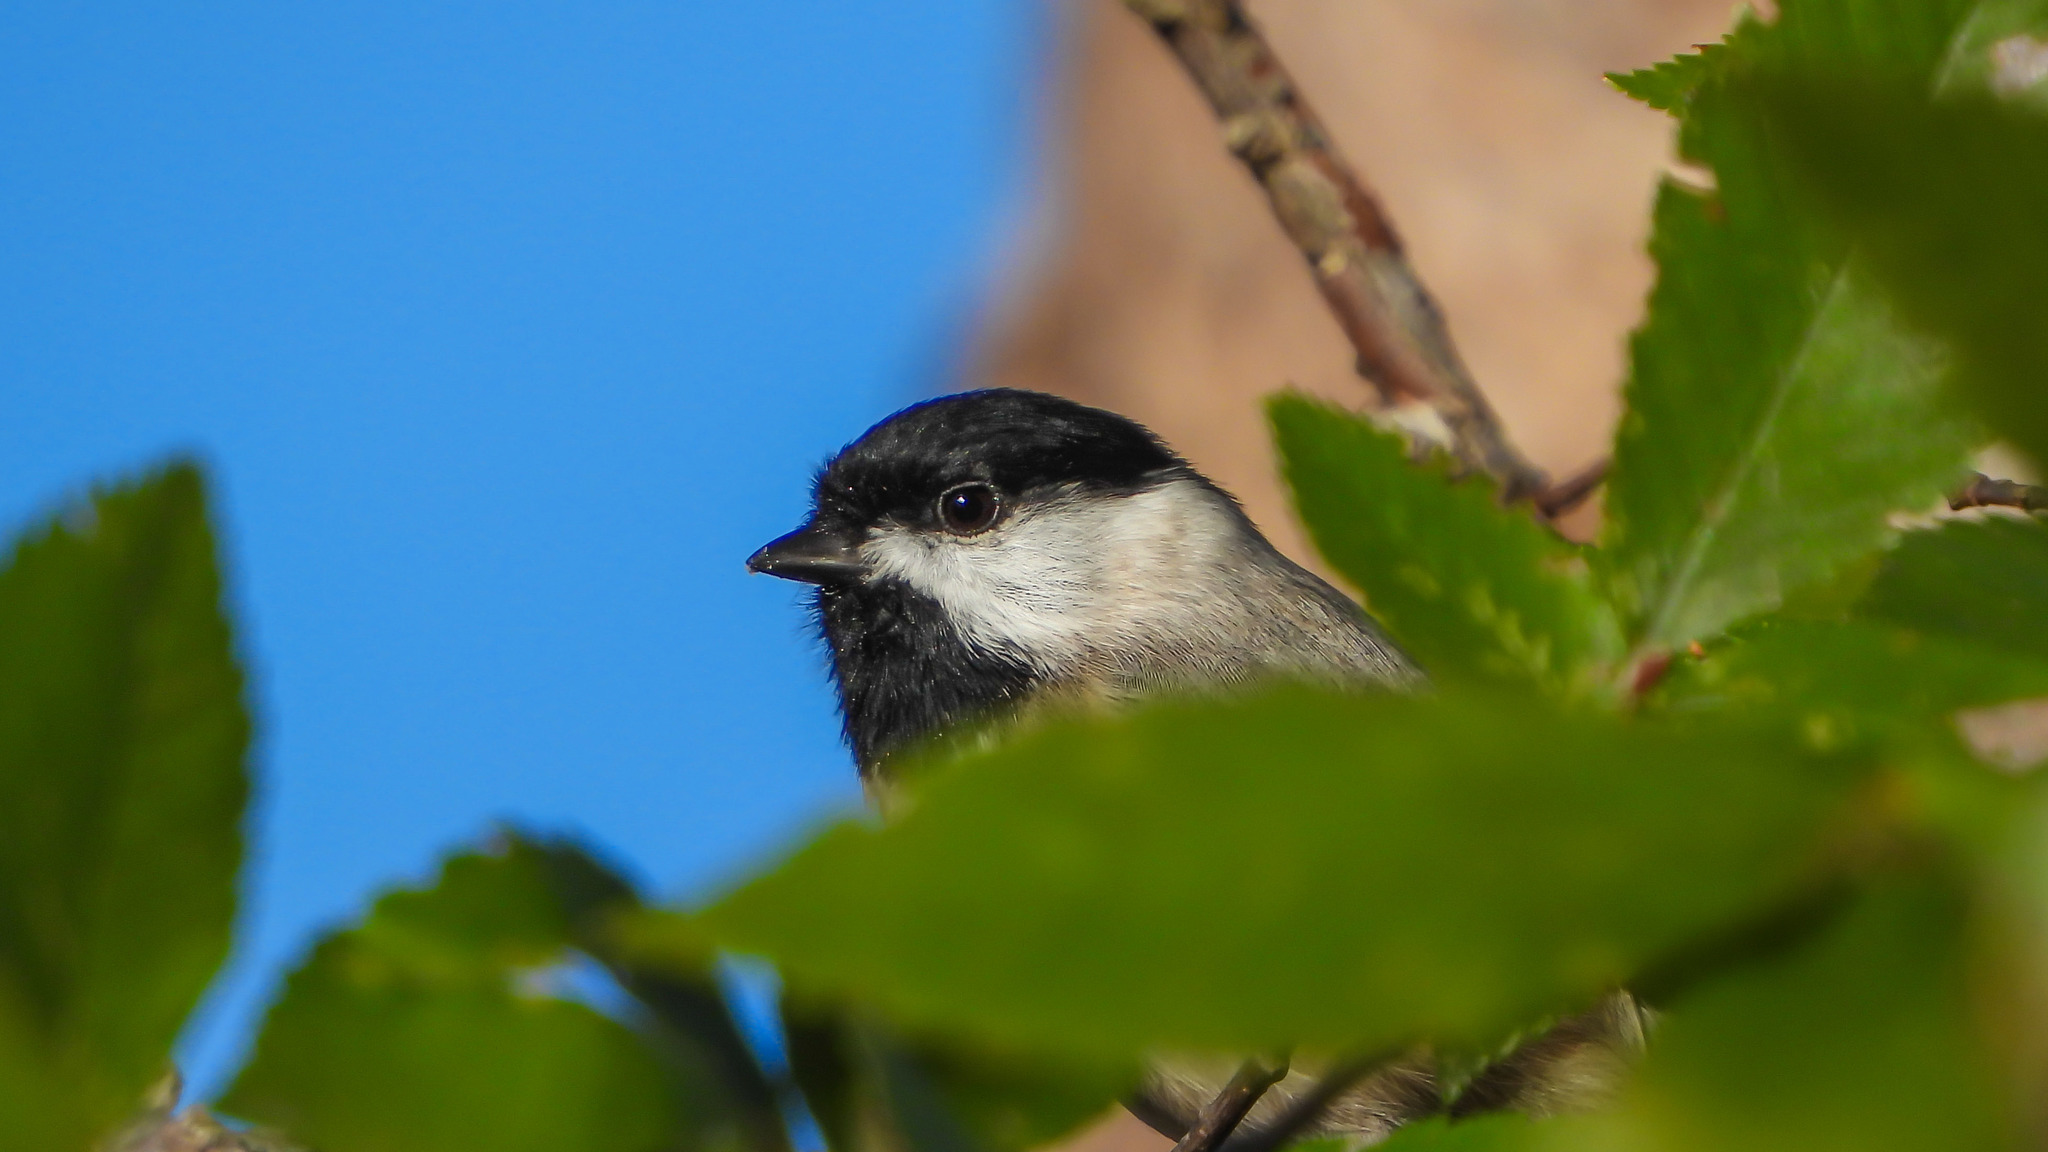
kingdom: Animalia
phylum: Chordata
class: Aves
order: Passeriformes
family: Paridae
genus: Poecile
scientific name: Poecile carolinensis
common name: Carolina chickadee
